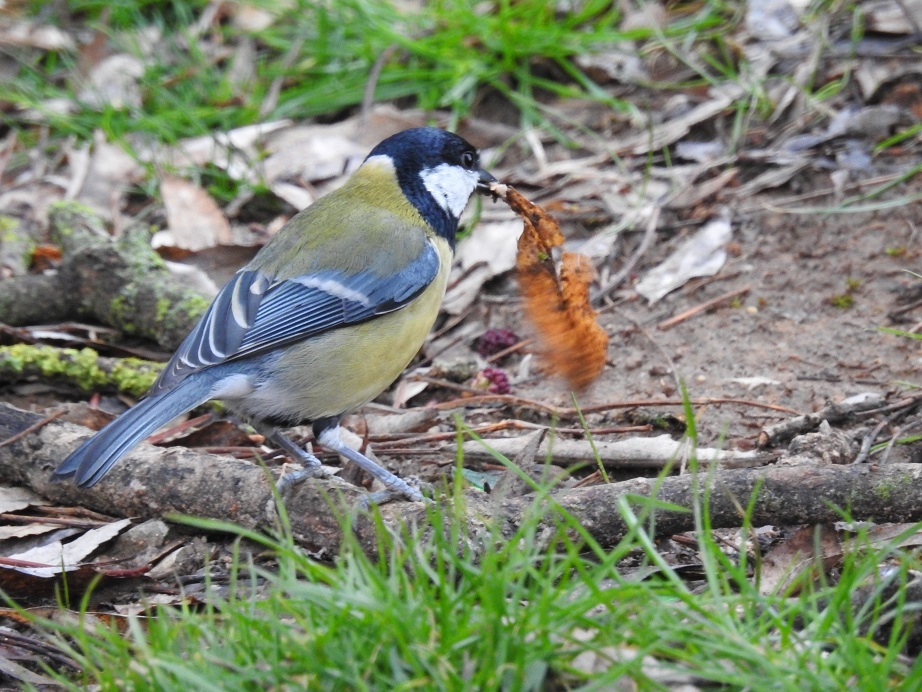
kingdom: Animalia
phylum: Chordata
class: Aves
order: Passeriformes
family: Paridae
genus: Parus
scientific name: Parus major
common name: Great tit
